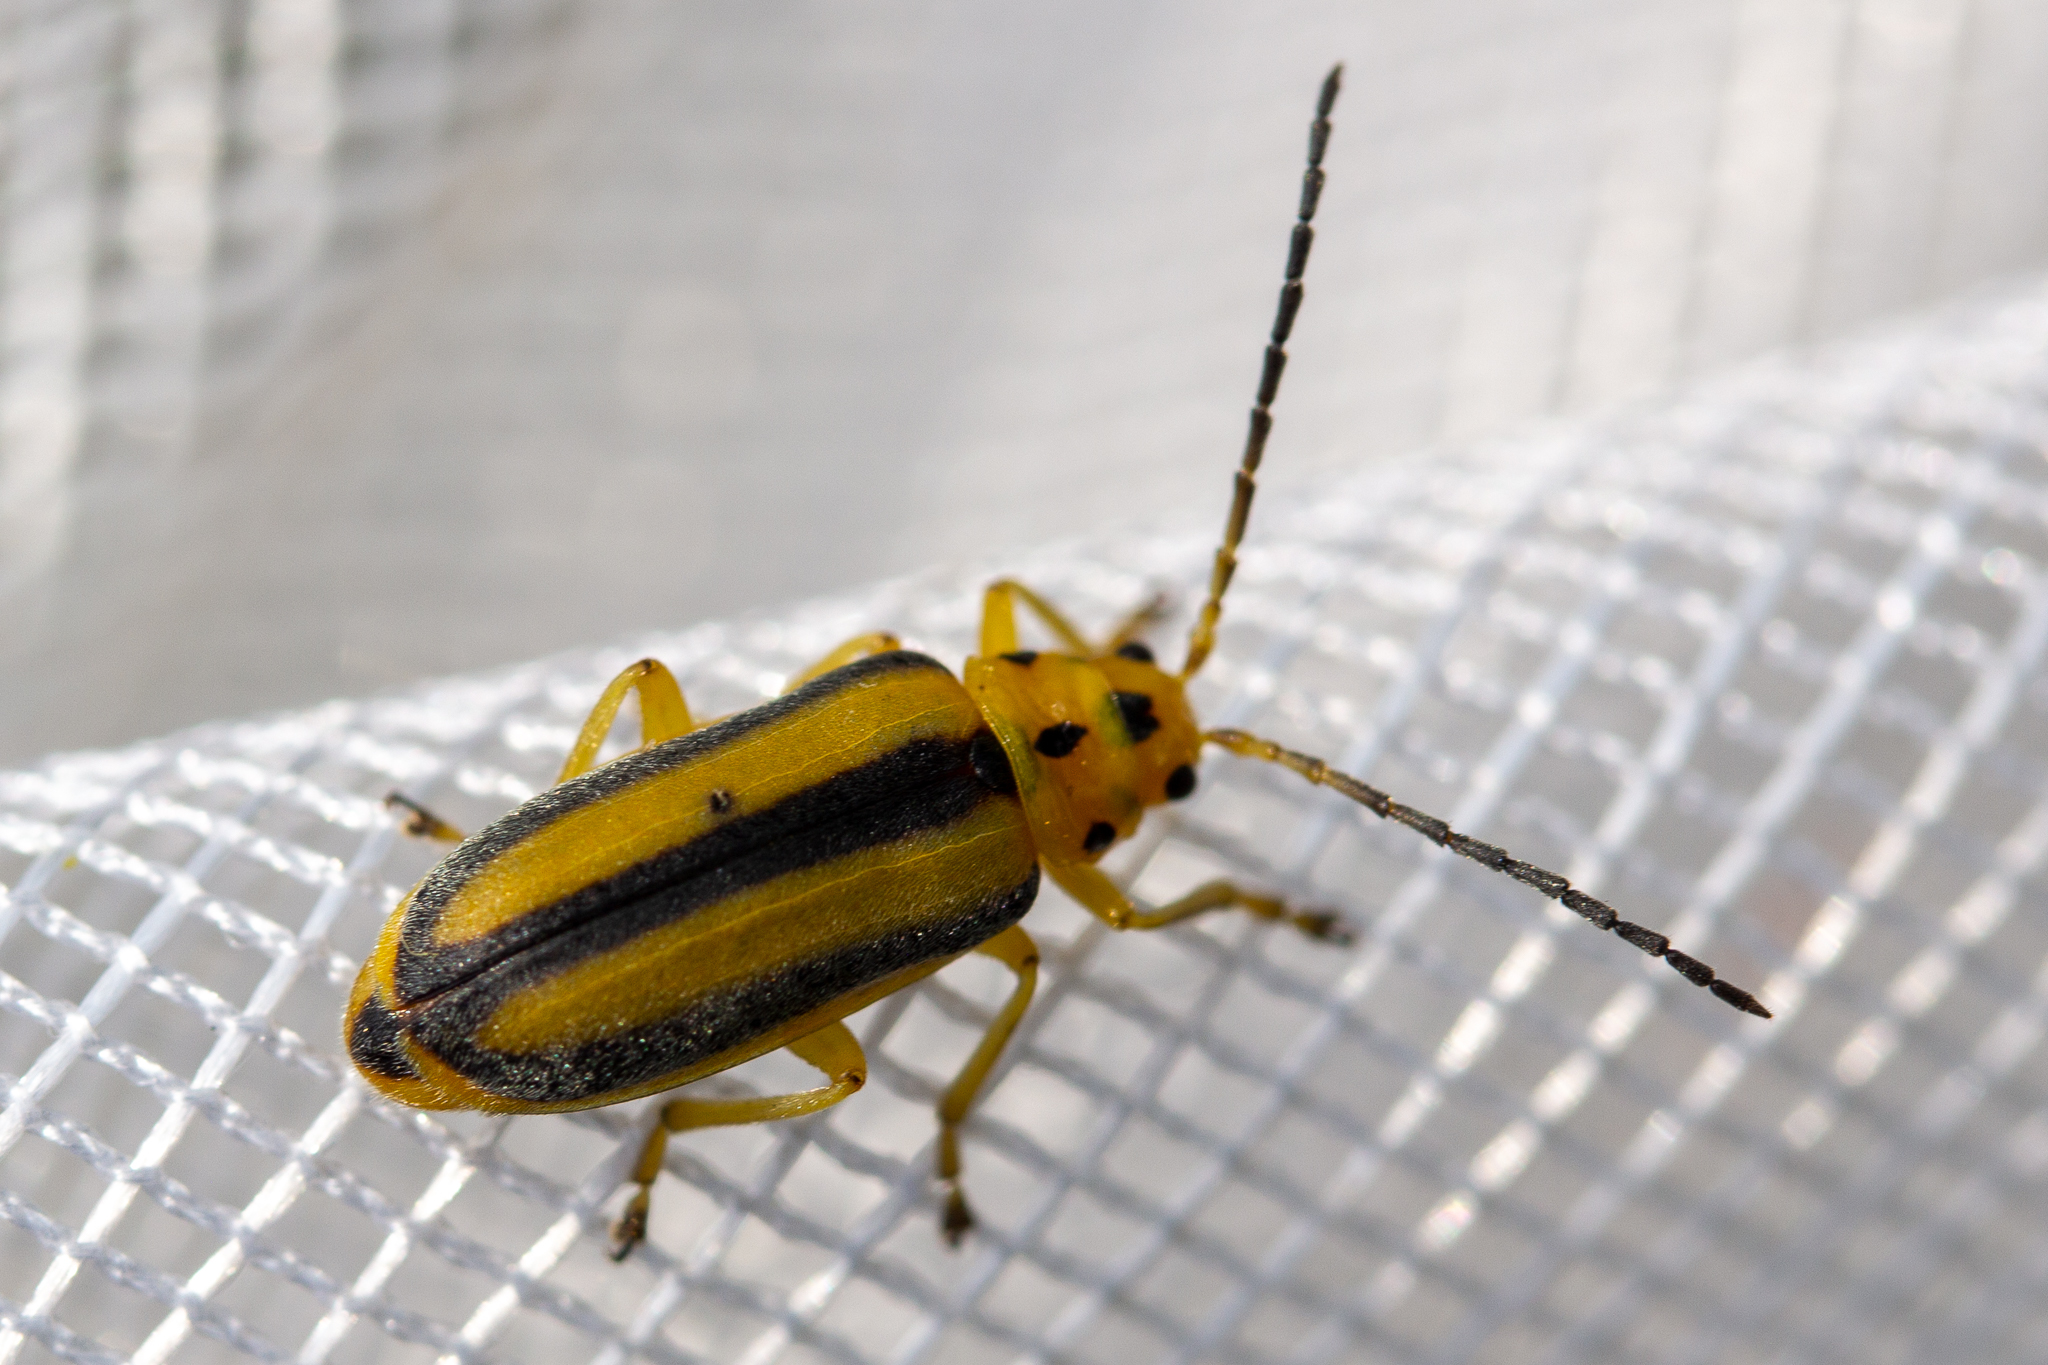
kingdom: Animalia
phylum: Arthropoda
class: Insecta
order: Coleoptera
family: Chrysomelidae
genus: Trirhabda
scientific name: Trirhabda canadensis
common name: Goldenrod leaf beetle
